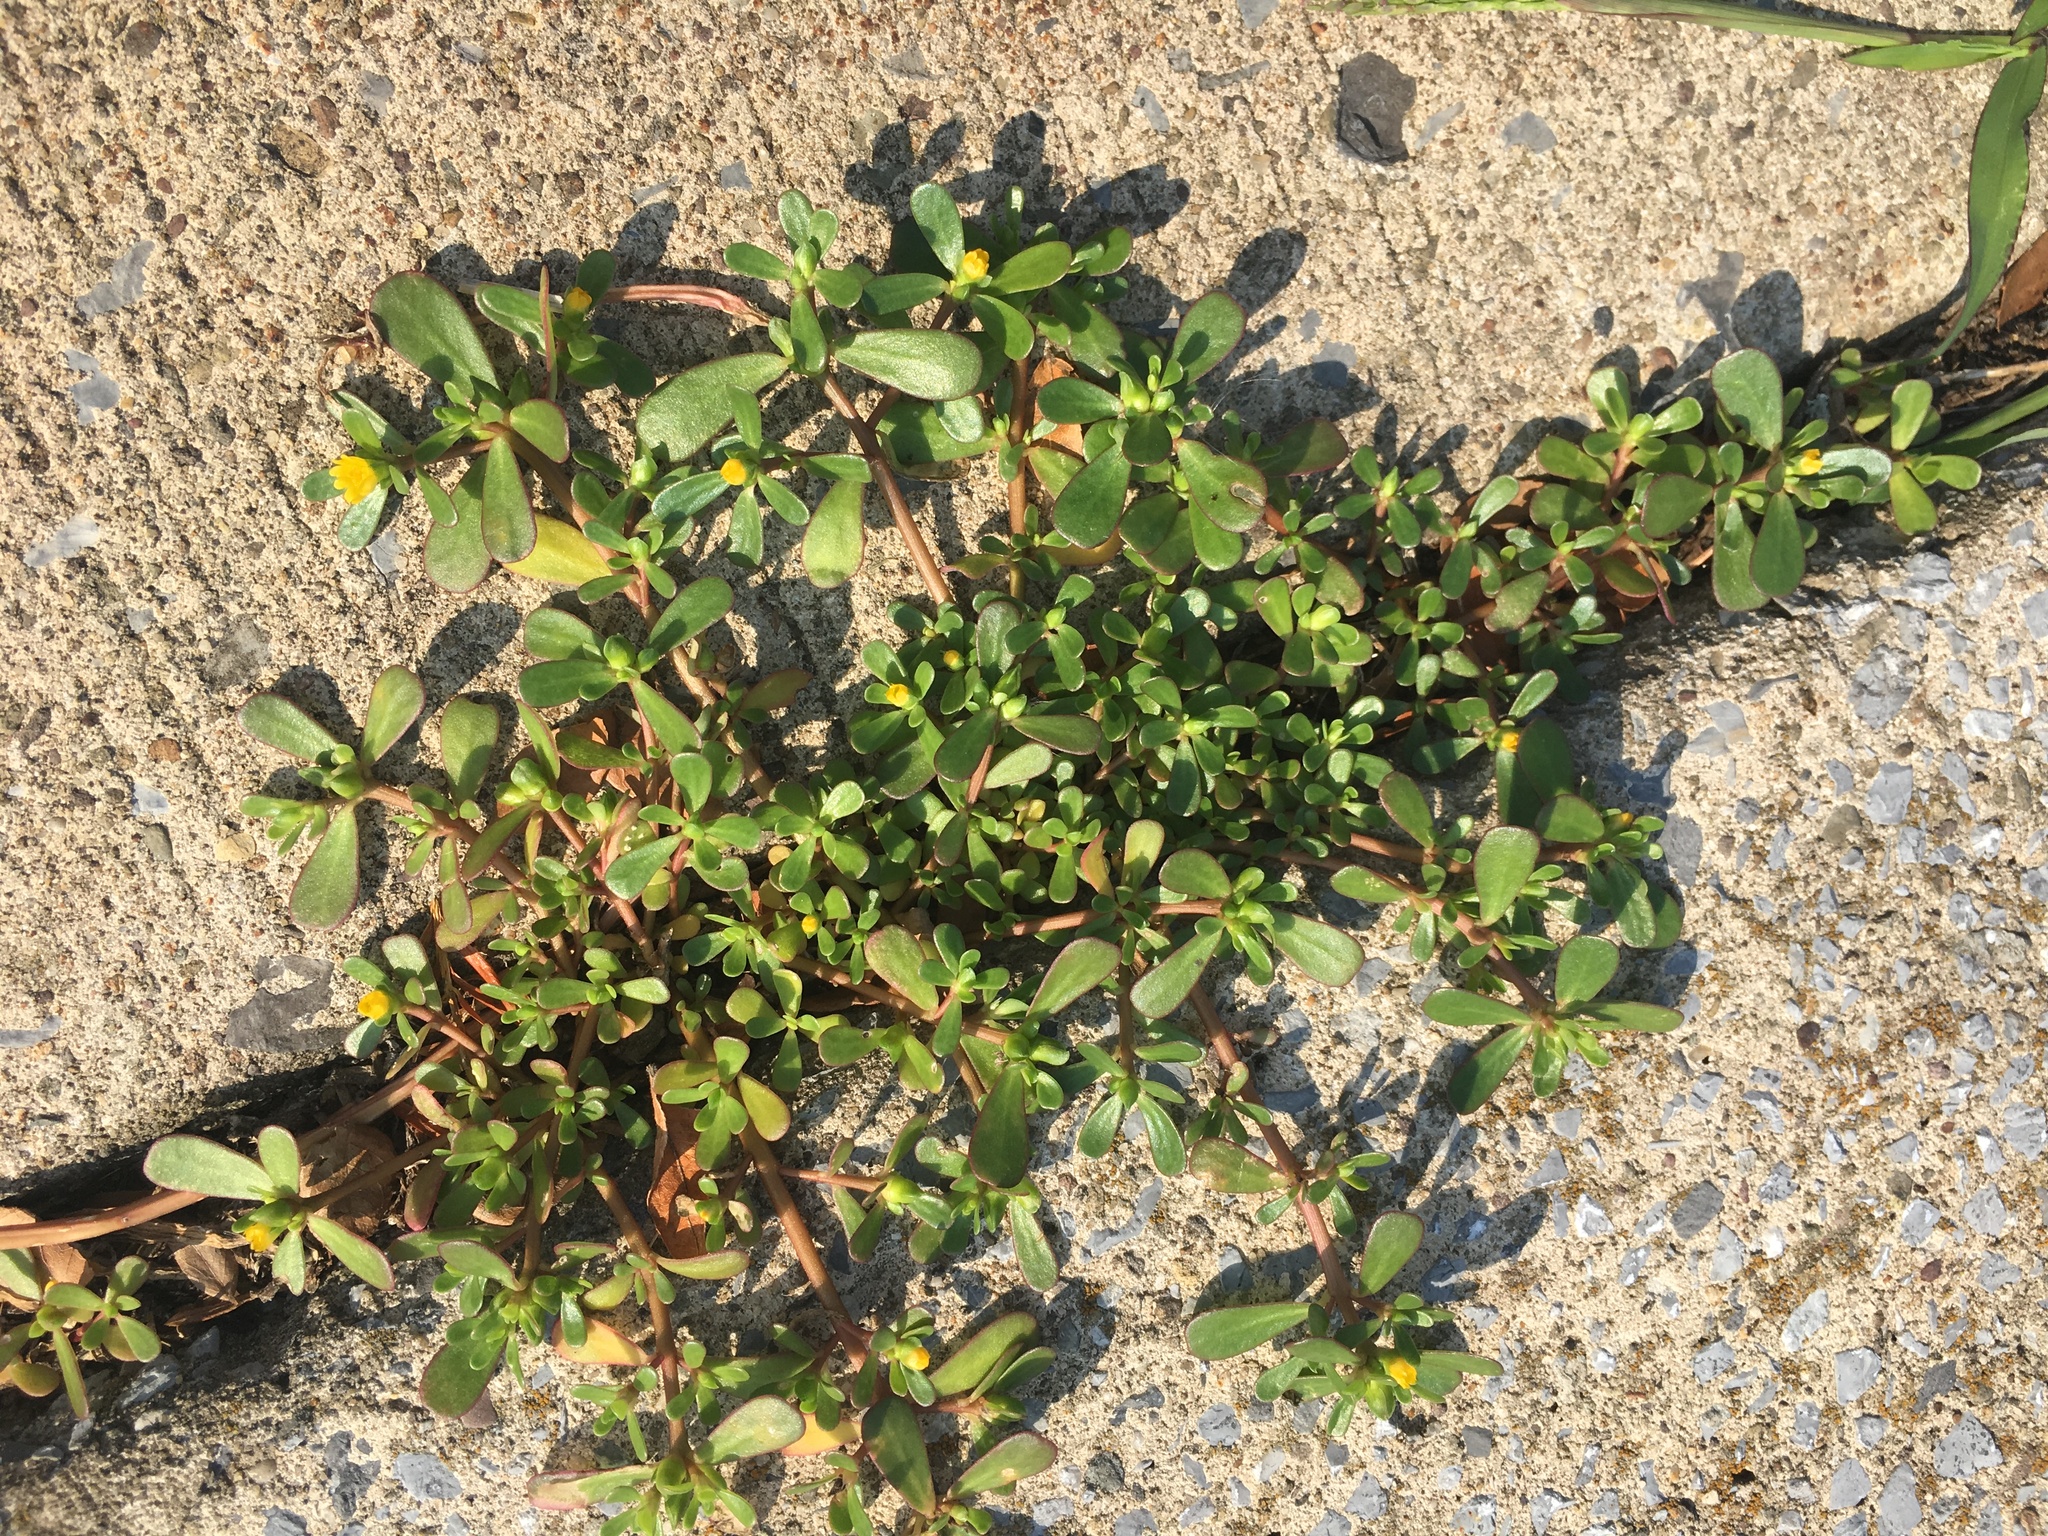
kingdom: Plantae
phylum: Tracheophyta
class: Magnoliopsida
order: Caryophyllales
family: Portulacaceae
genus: Portulaca
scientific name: Portulaca oleracea
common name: Common purslane
